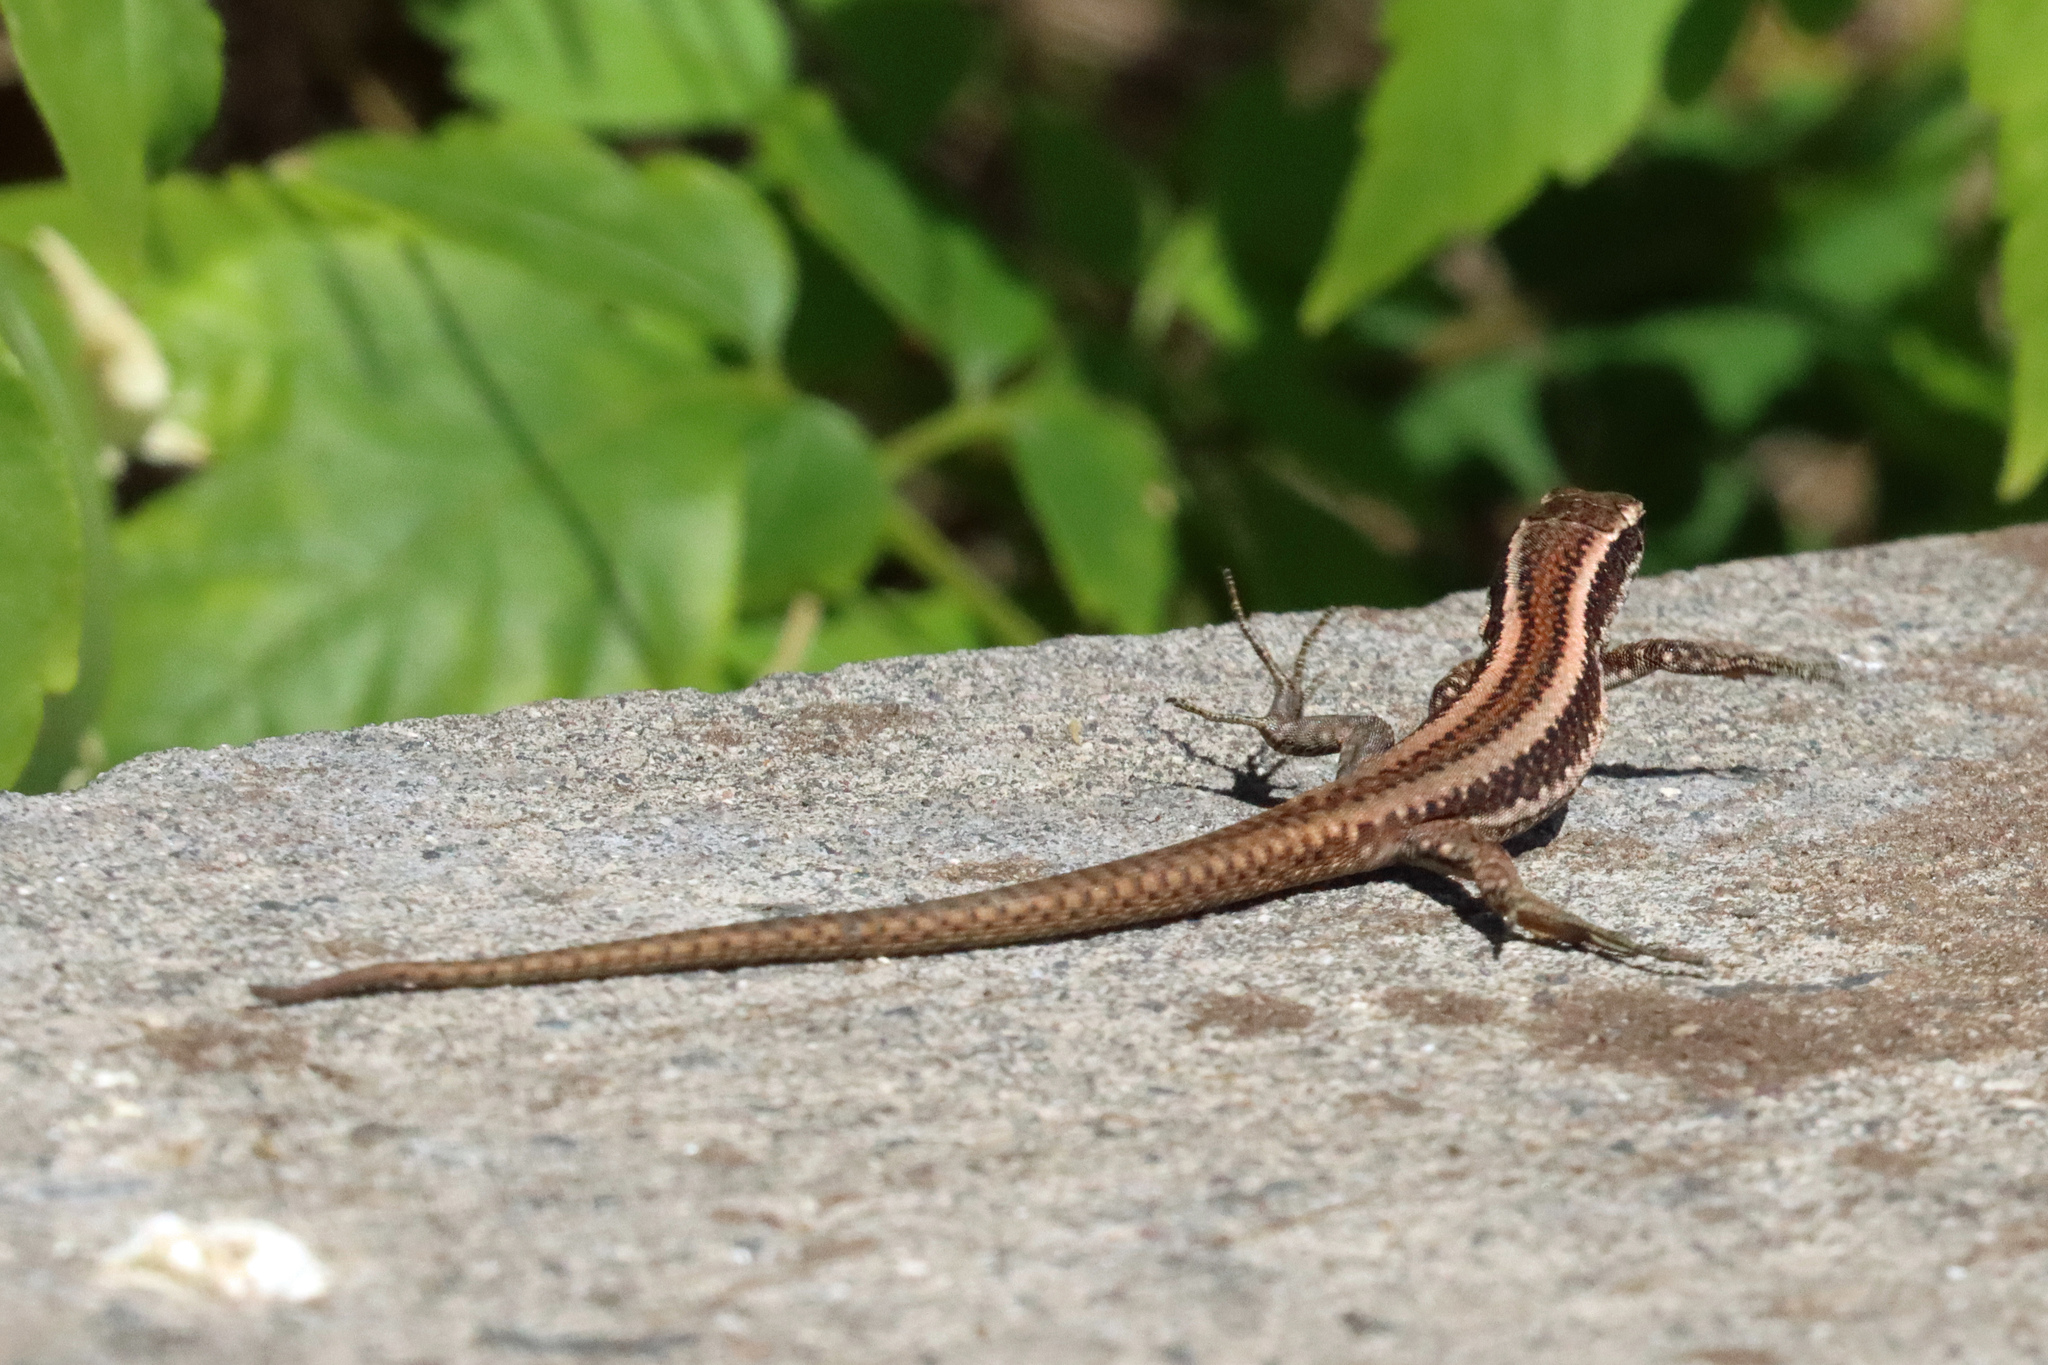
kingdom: Animalia
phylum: Chordata
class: Squamata
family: Lacertidae
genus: Teira
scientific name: Teira dugesii
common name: Madeira lizard
